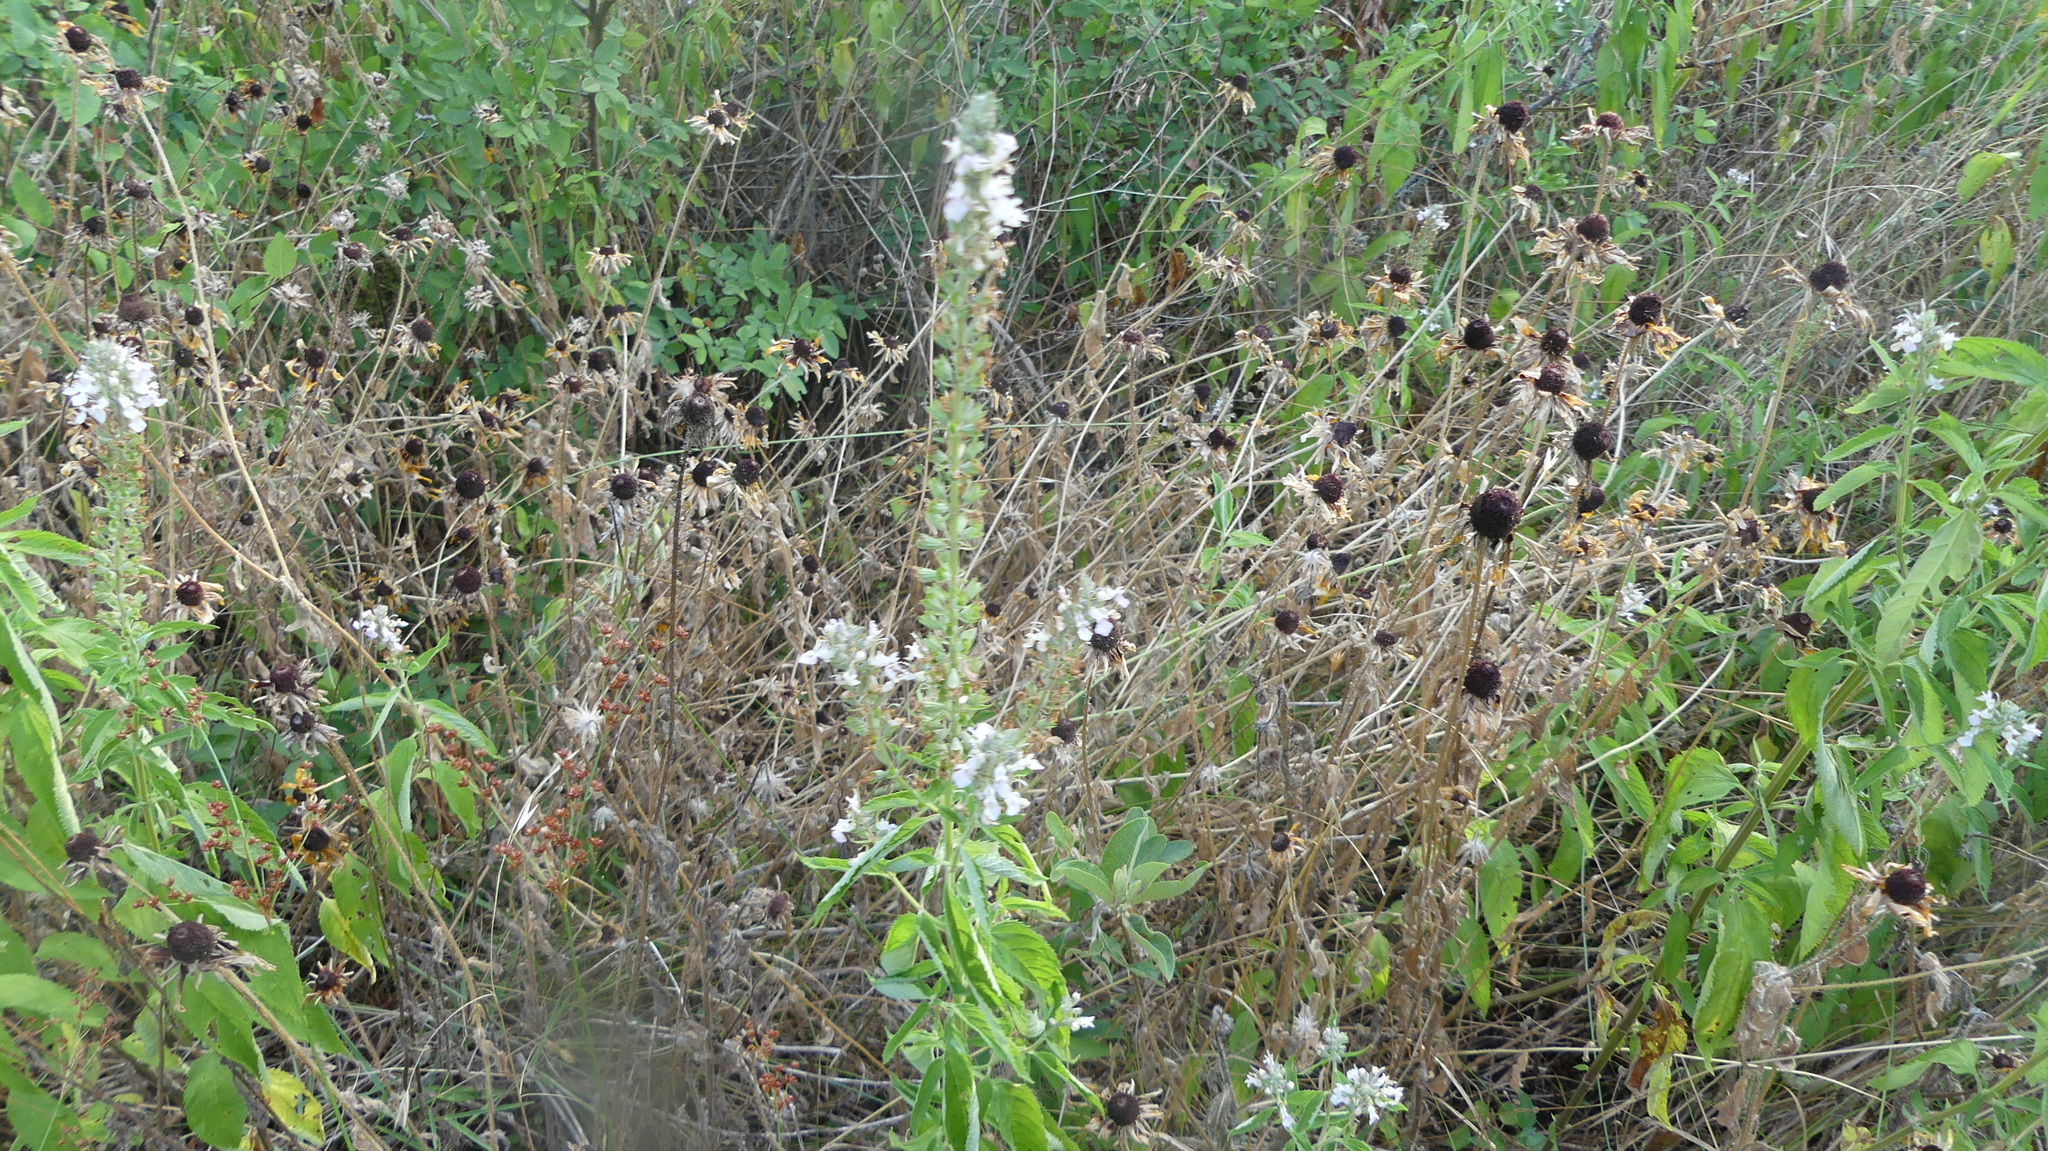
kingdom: Plantae
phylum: Tracheophyta
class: Magnoliopsida
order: Lamiales
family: Lamiaceae
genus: Teucrium
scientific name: Teucrium canadense
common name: American germander
